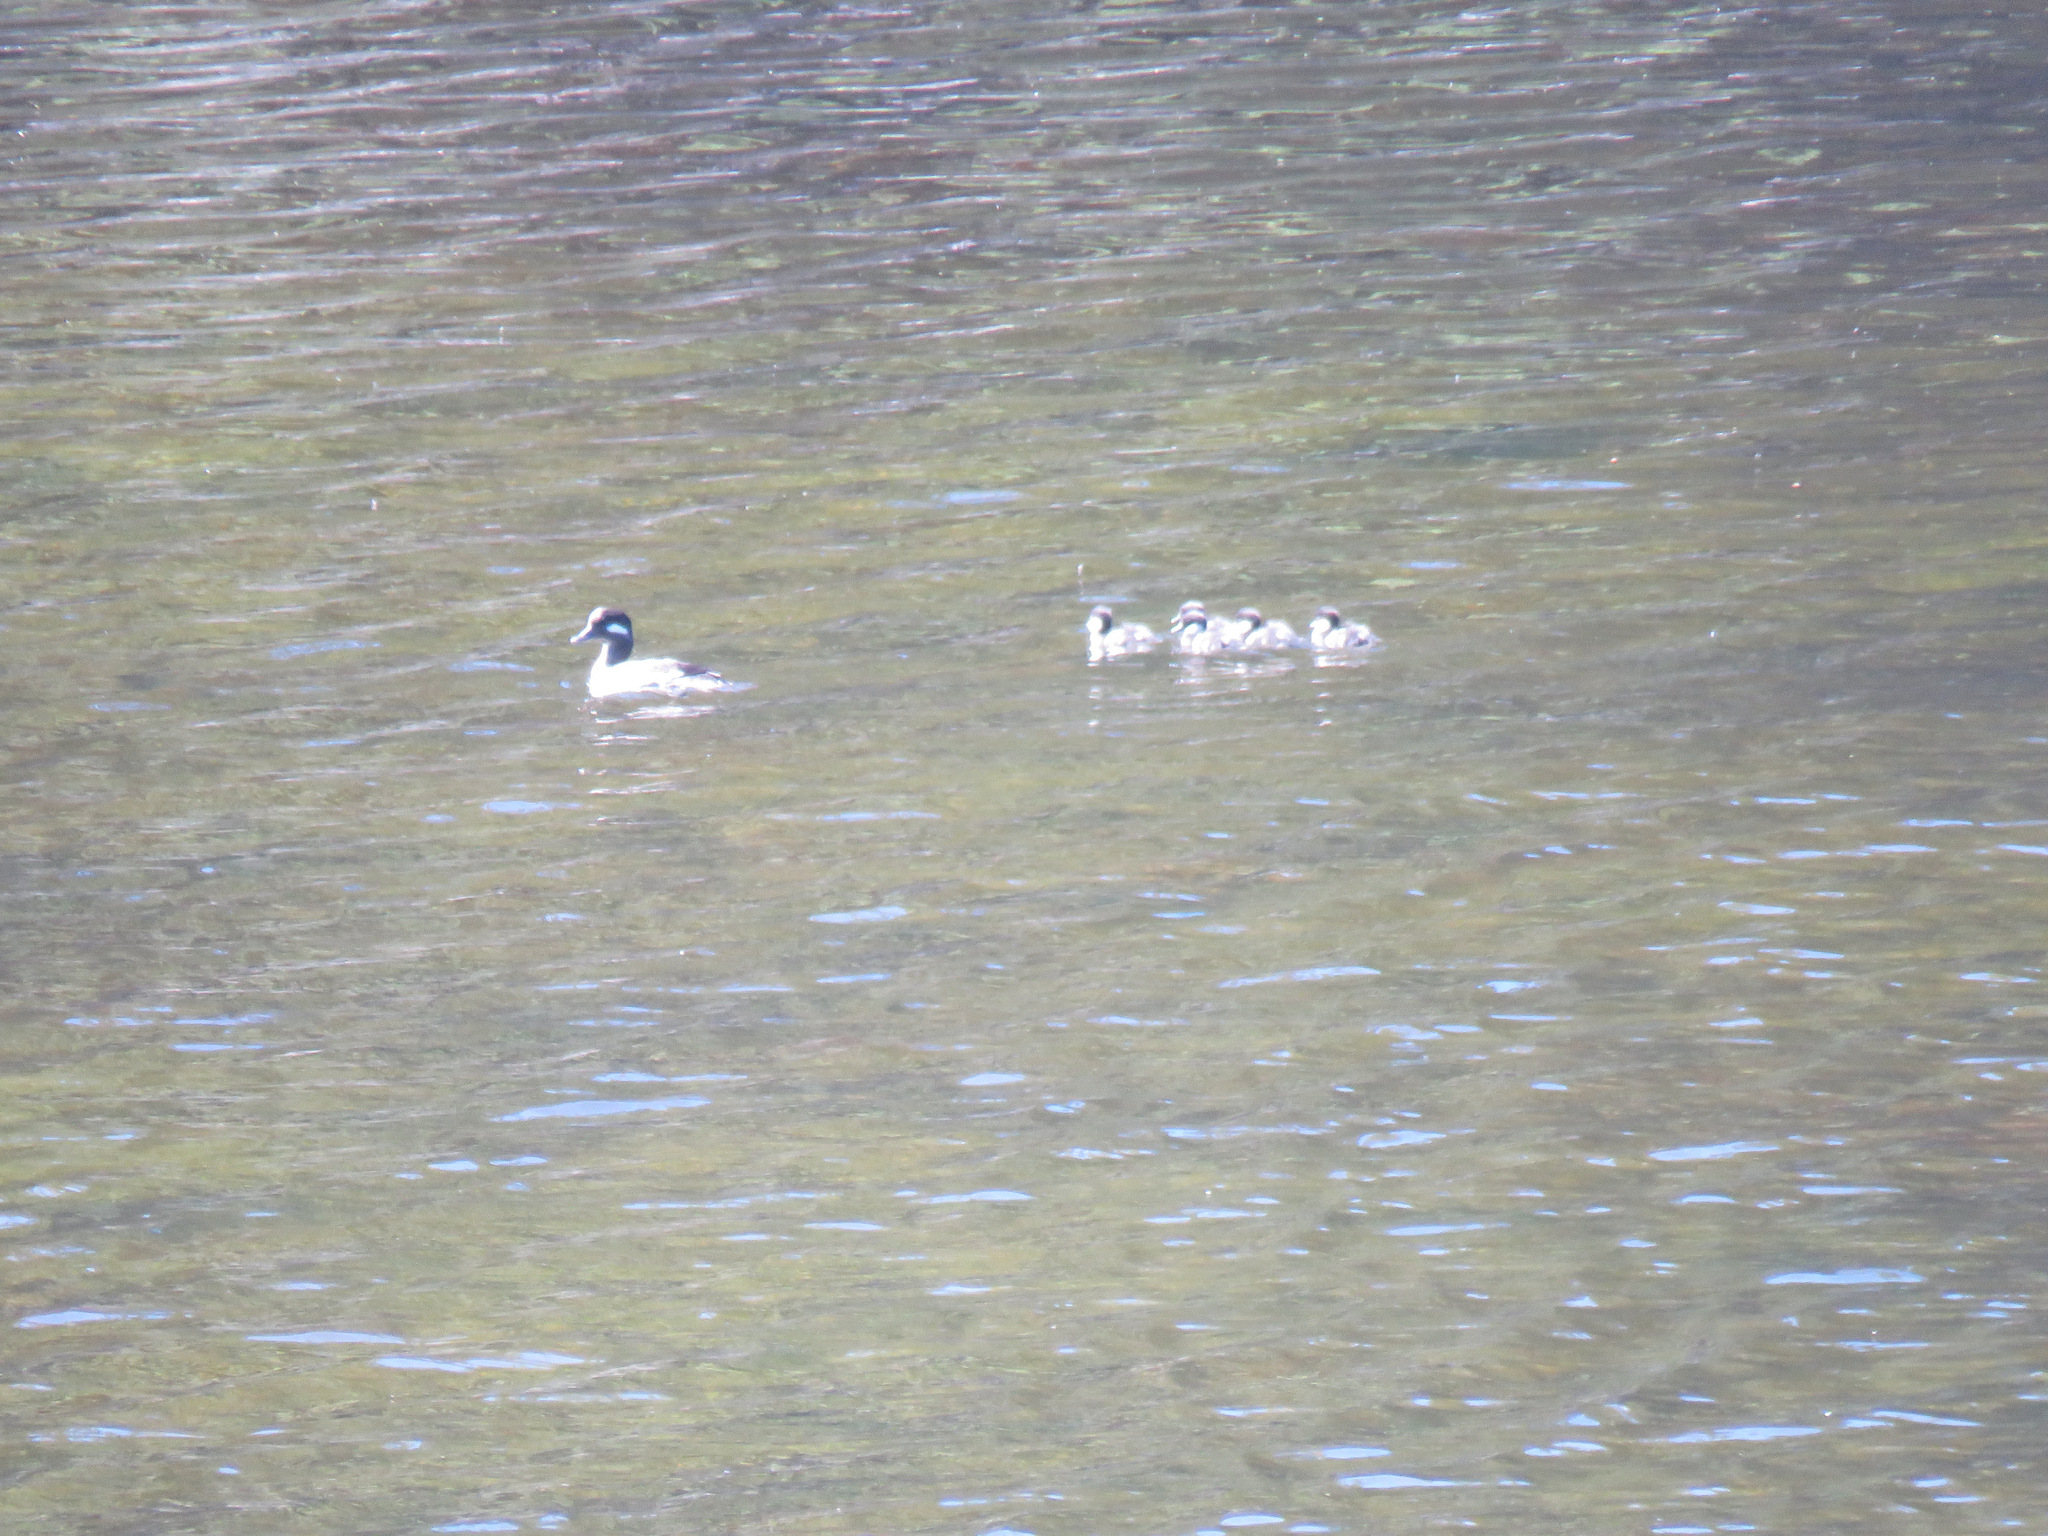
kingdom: Animalia
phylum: Chordata
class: Aves
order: Anseriformes
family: Anatidae
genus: Bucephala
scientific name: Bucephala albeola
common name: Bufflehead
